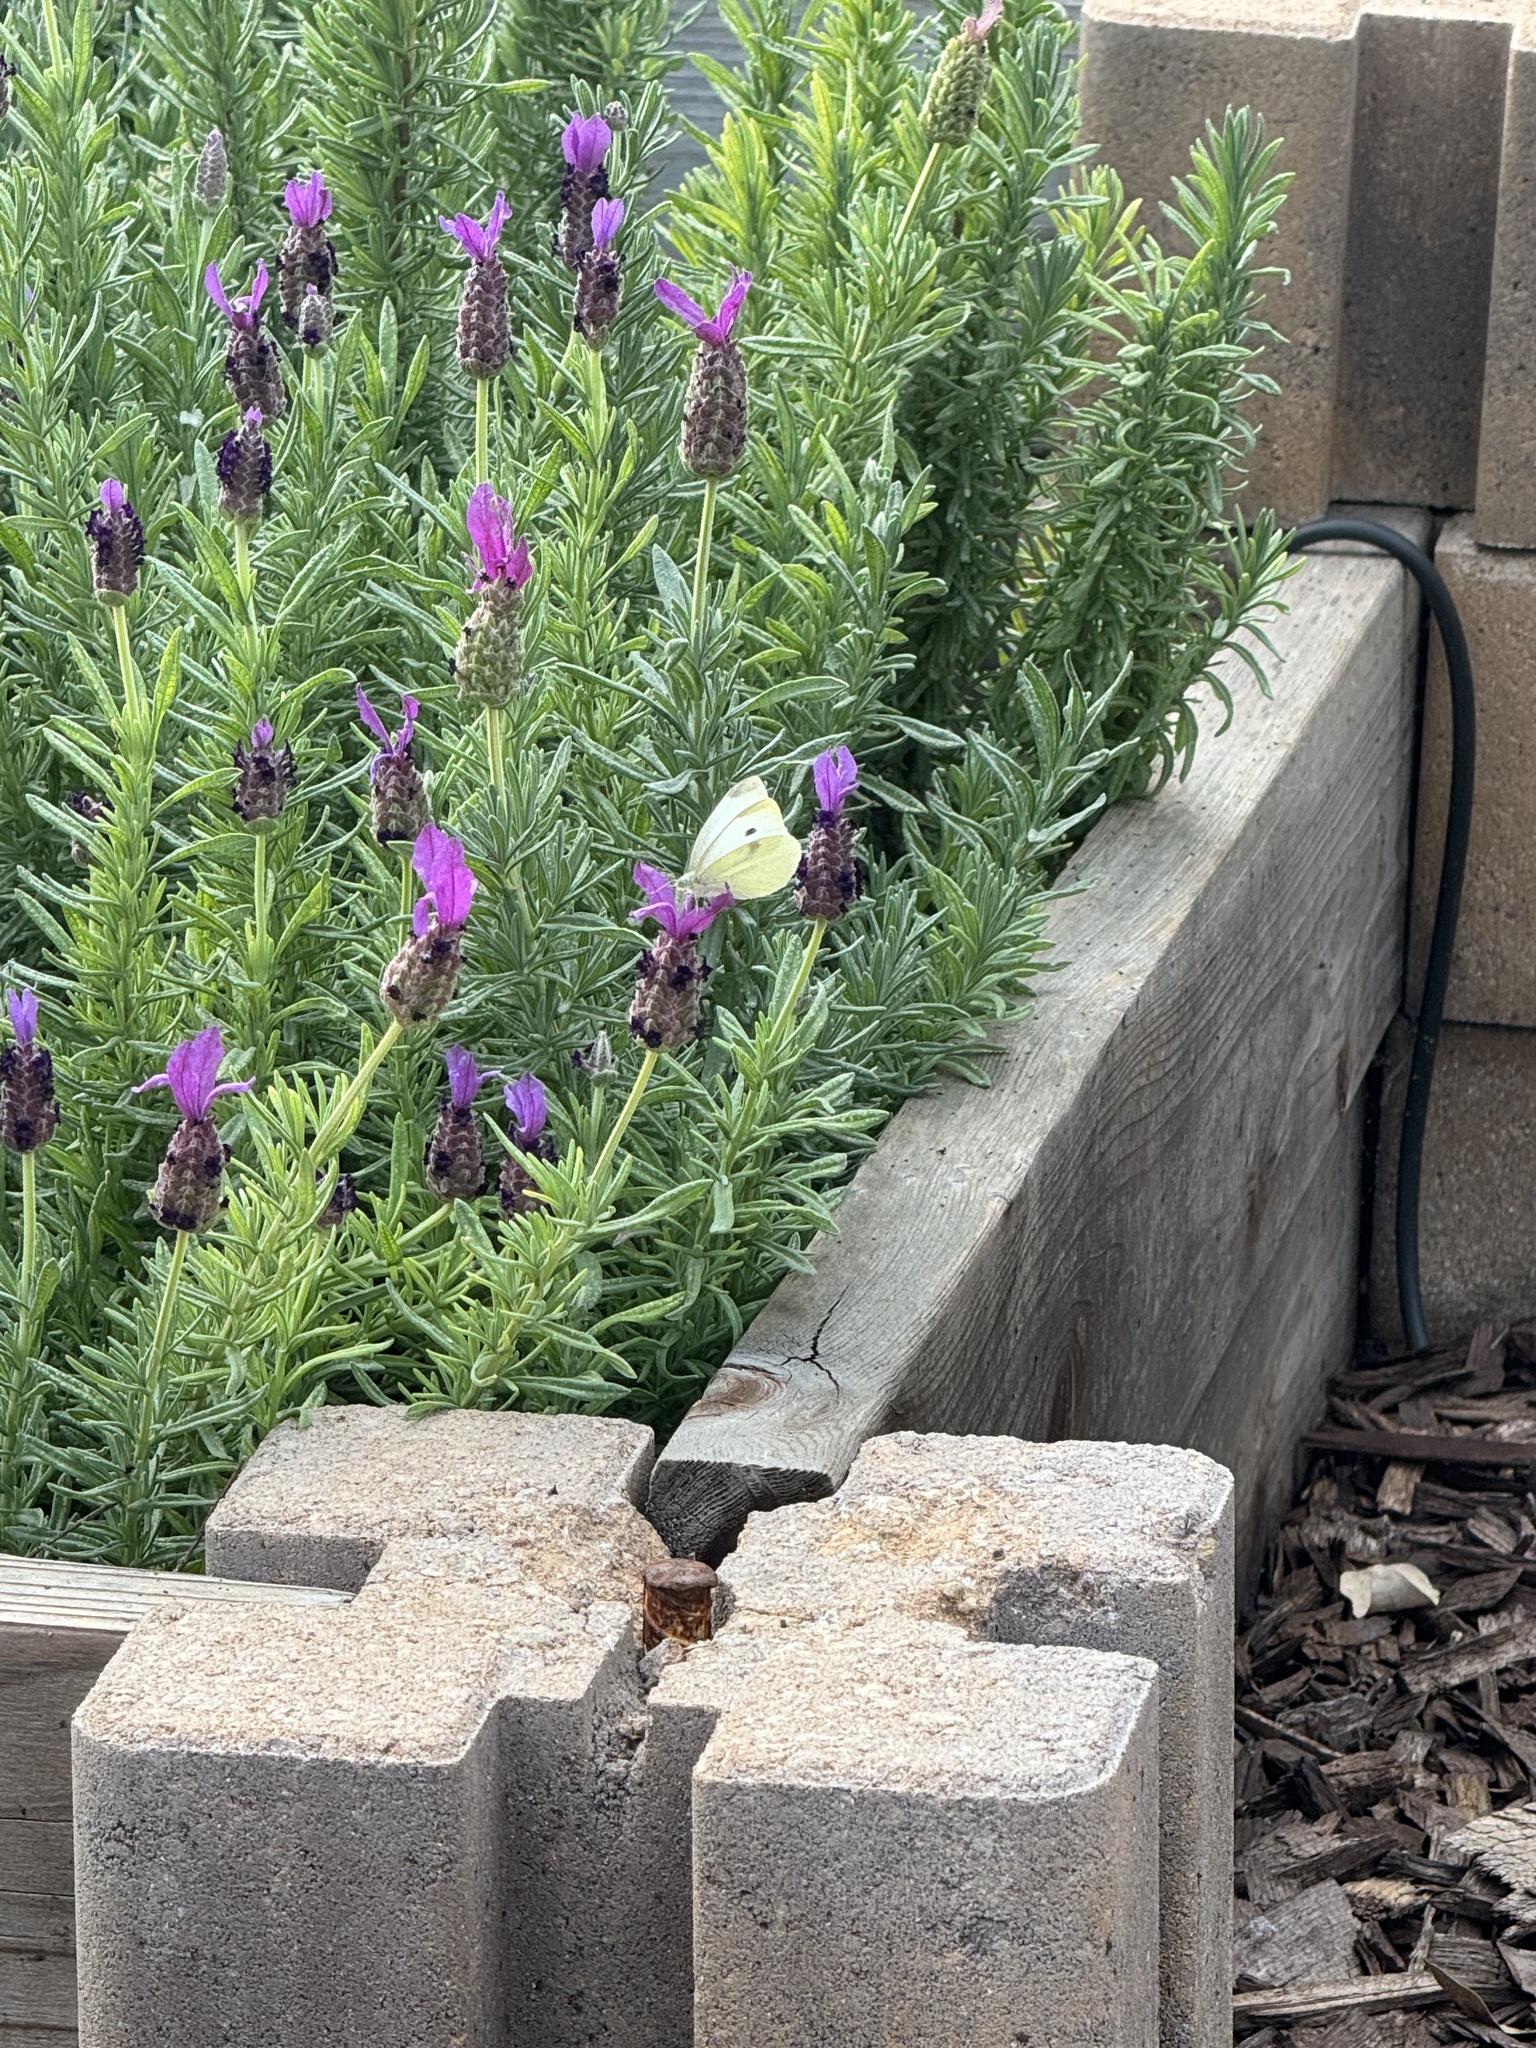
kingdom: Animalia
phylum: Arthropoda
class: Insecta
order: Lepidoptera
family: Pieridae
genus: Pieris
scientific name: Pieris rapae
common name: Small white
